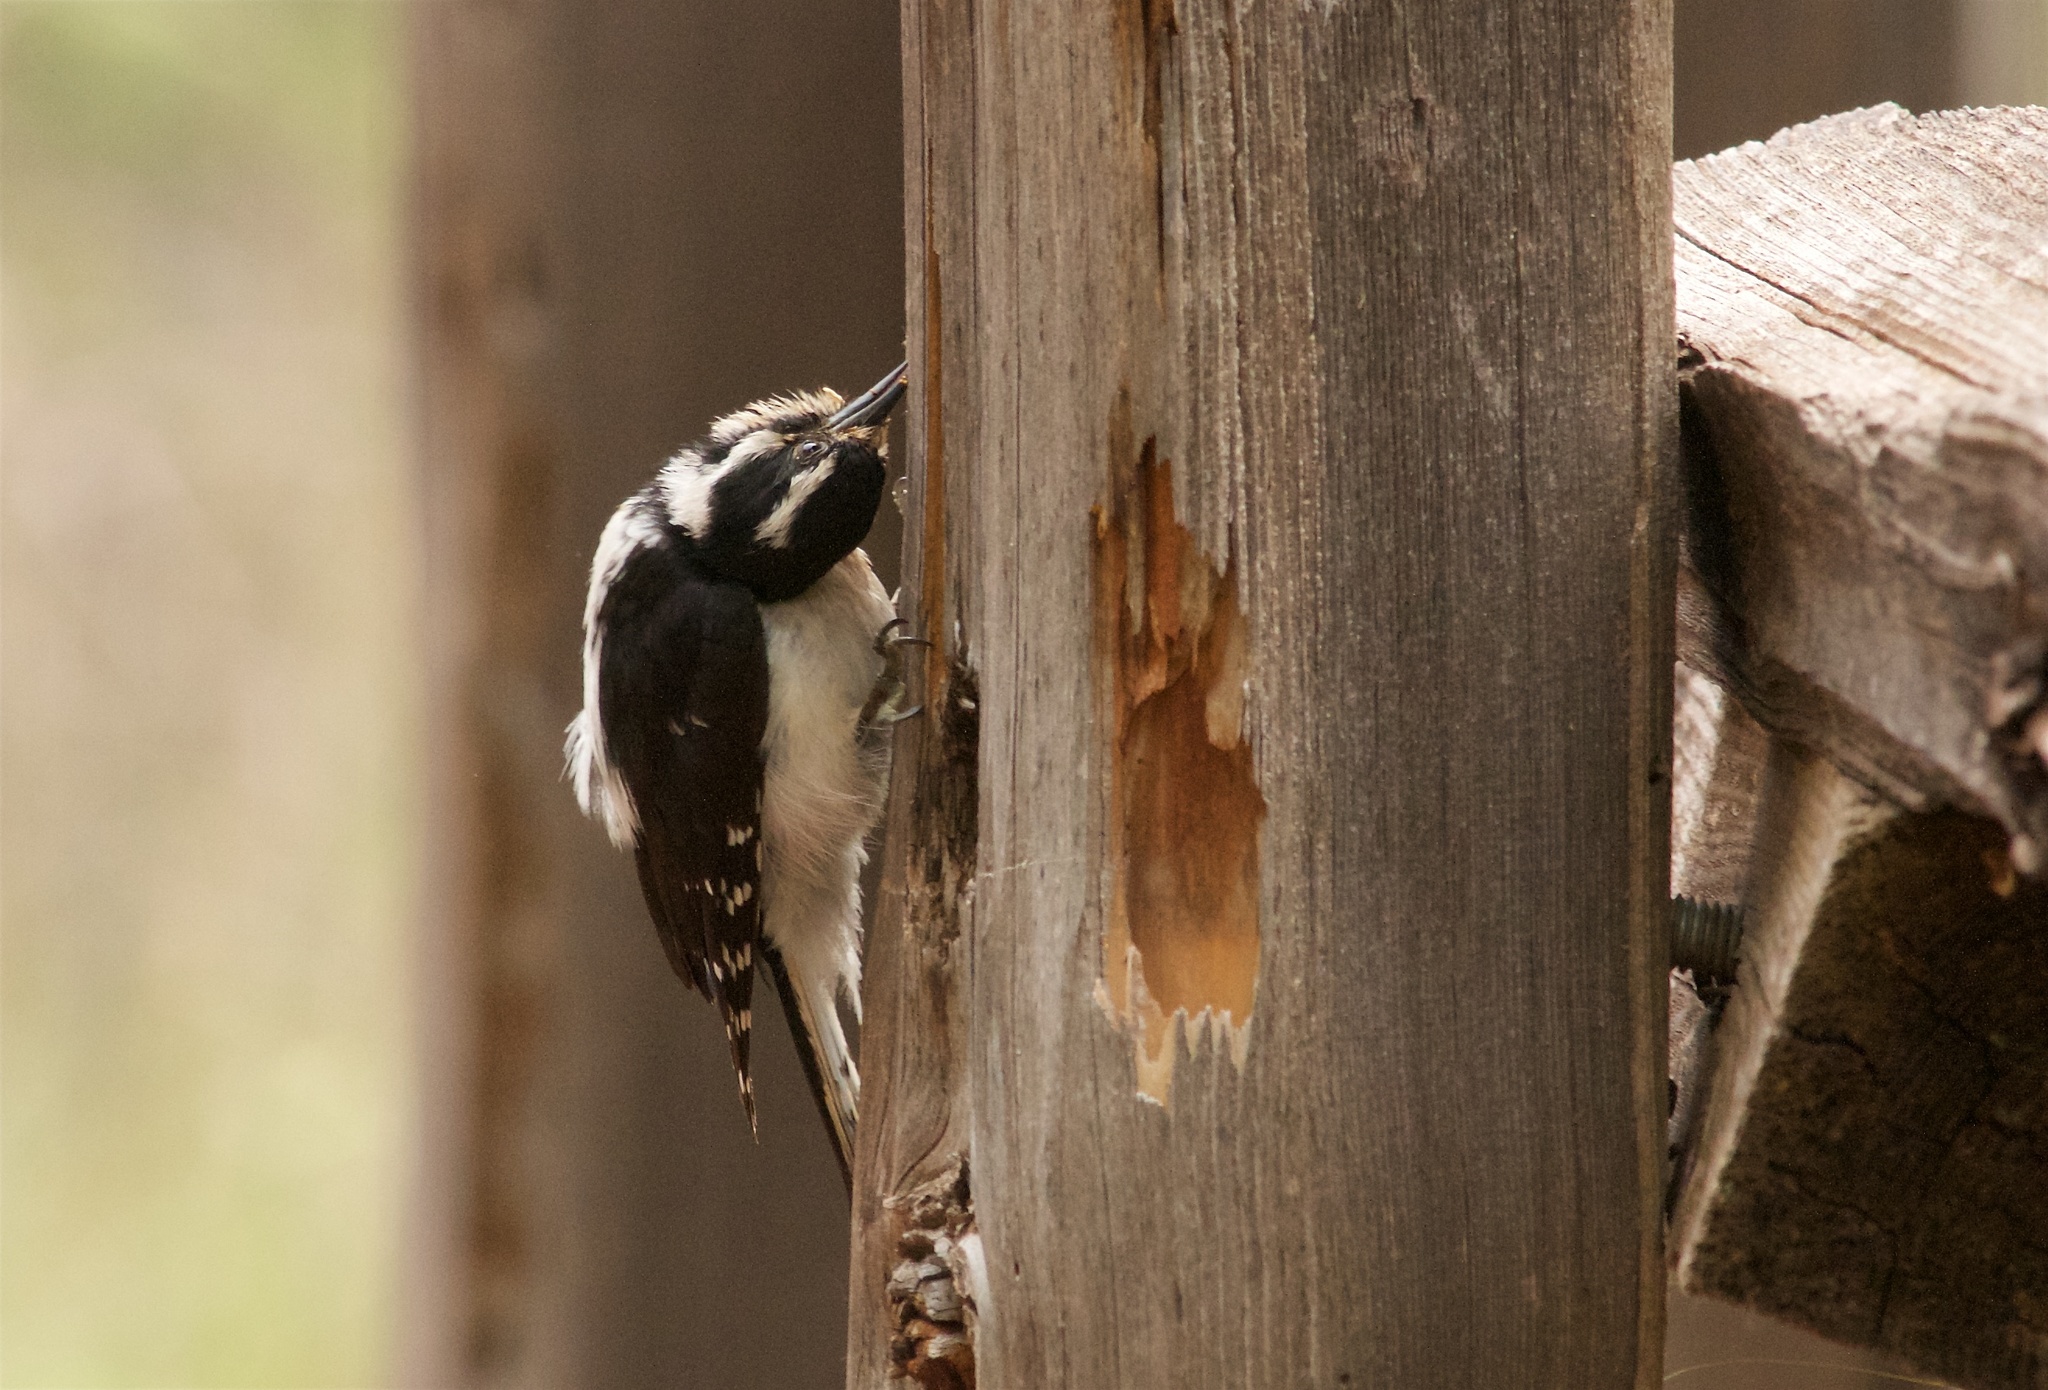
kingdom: Animalia
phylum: Chordata
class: Aves
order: Piciformes
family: Picidae
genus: Dryobates
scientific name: Dryobates pubescens
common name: Downy woodpecker
